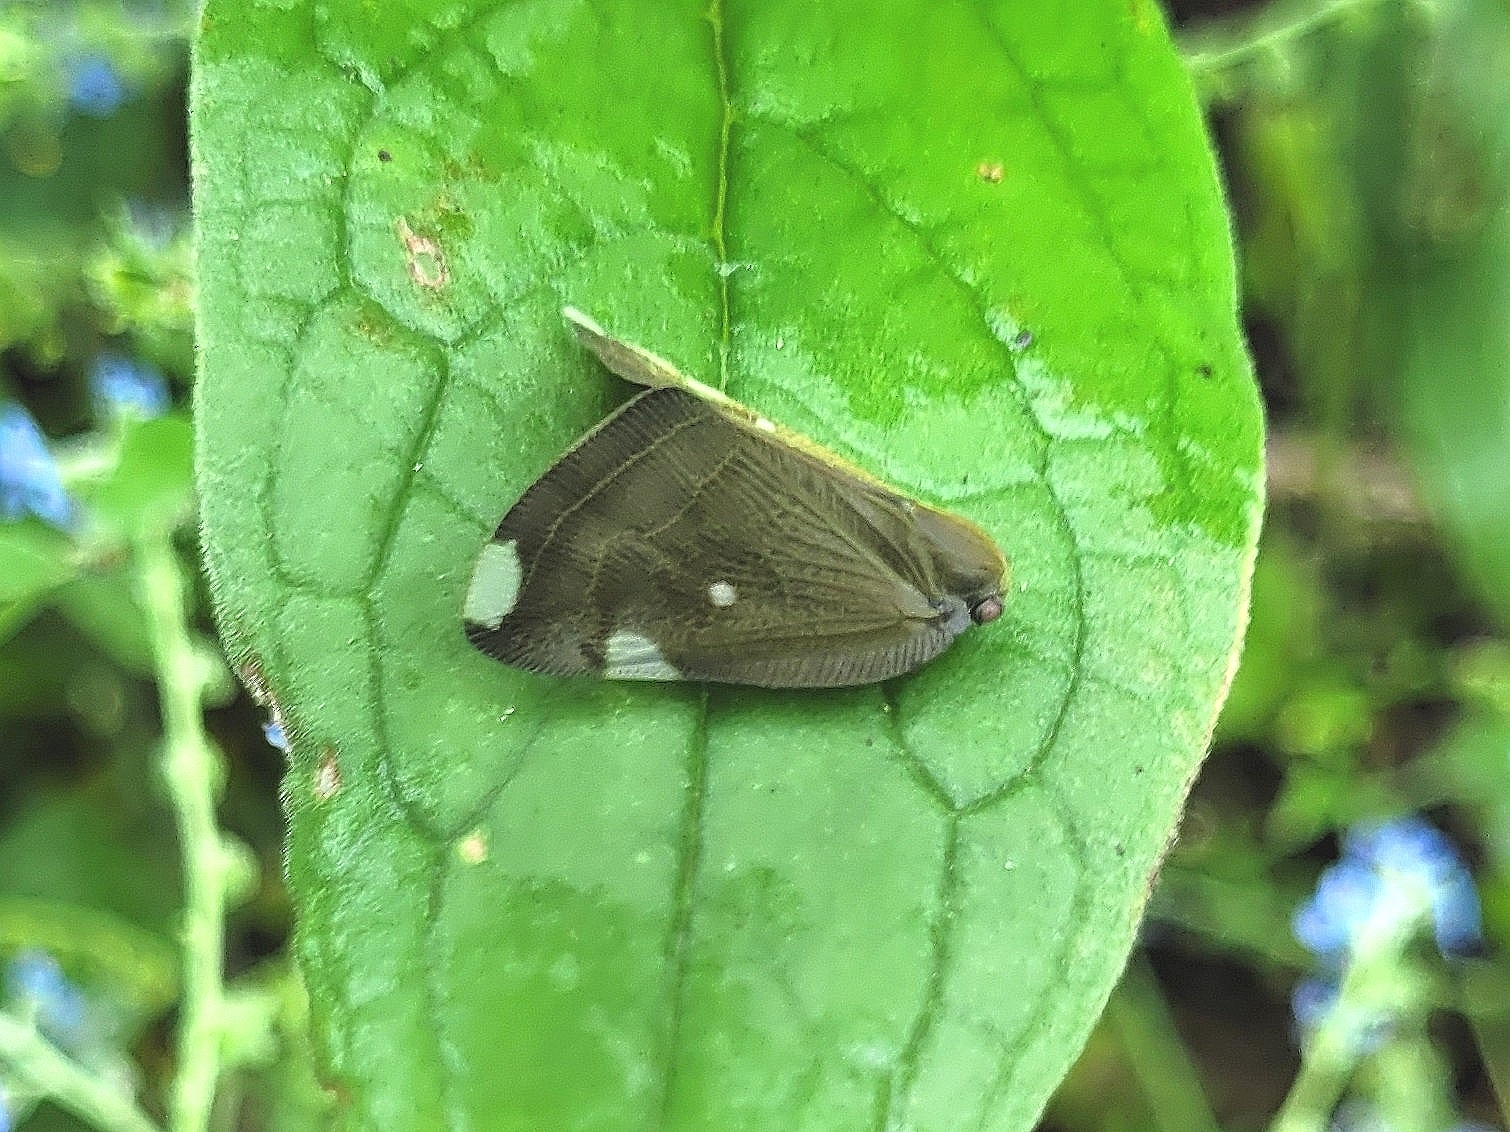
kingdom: Animalia
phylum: Arthropoda
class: Insecta
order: Hemiptera
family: Ricaniidae
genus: Ricania
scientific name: Ricania guttata
